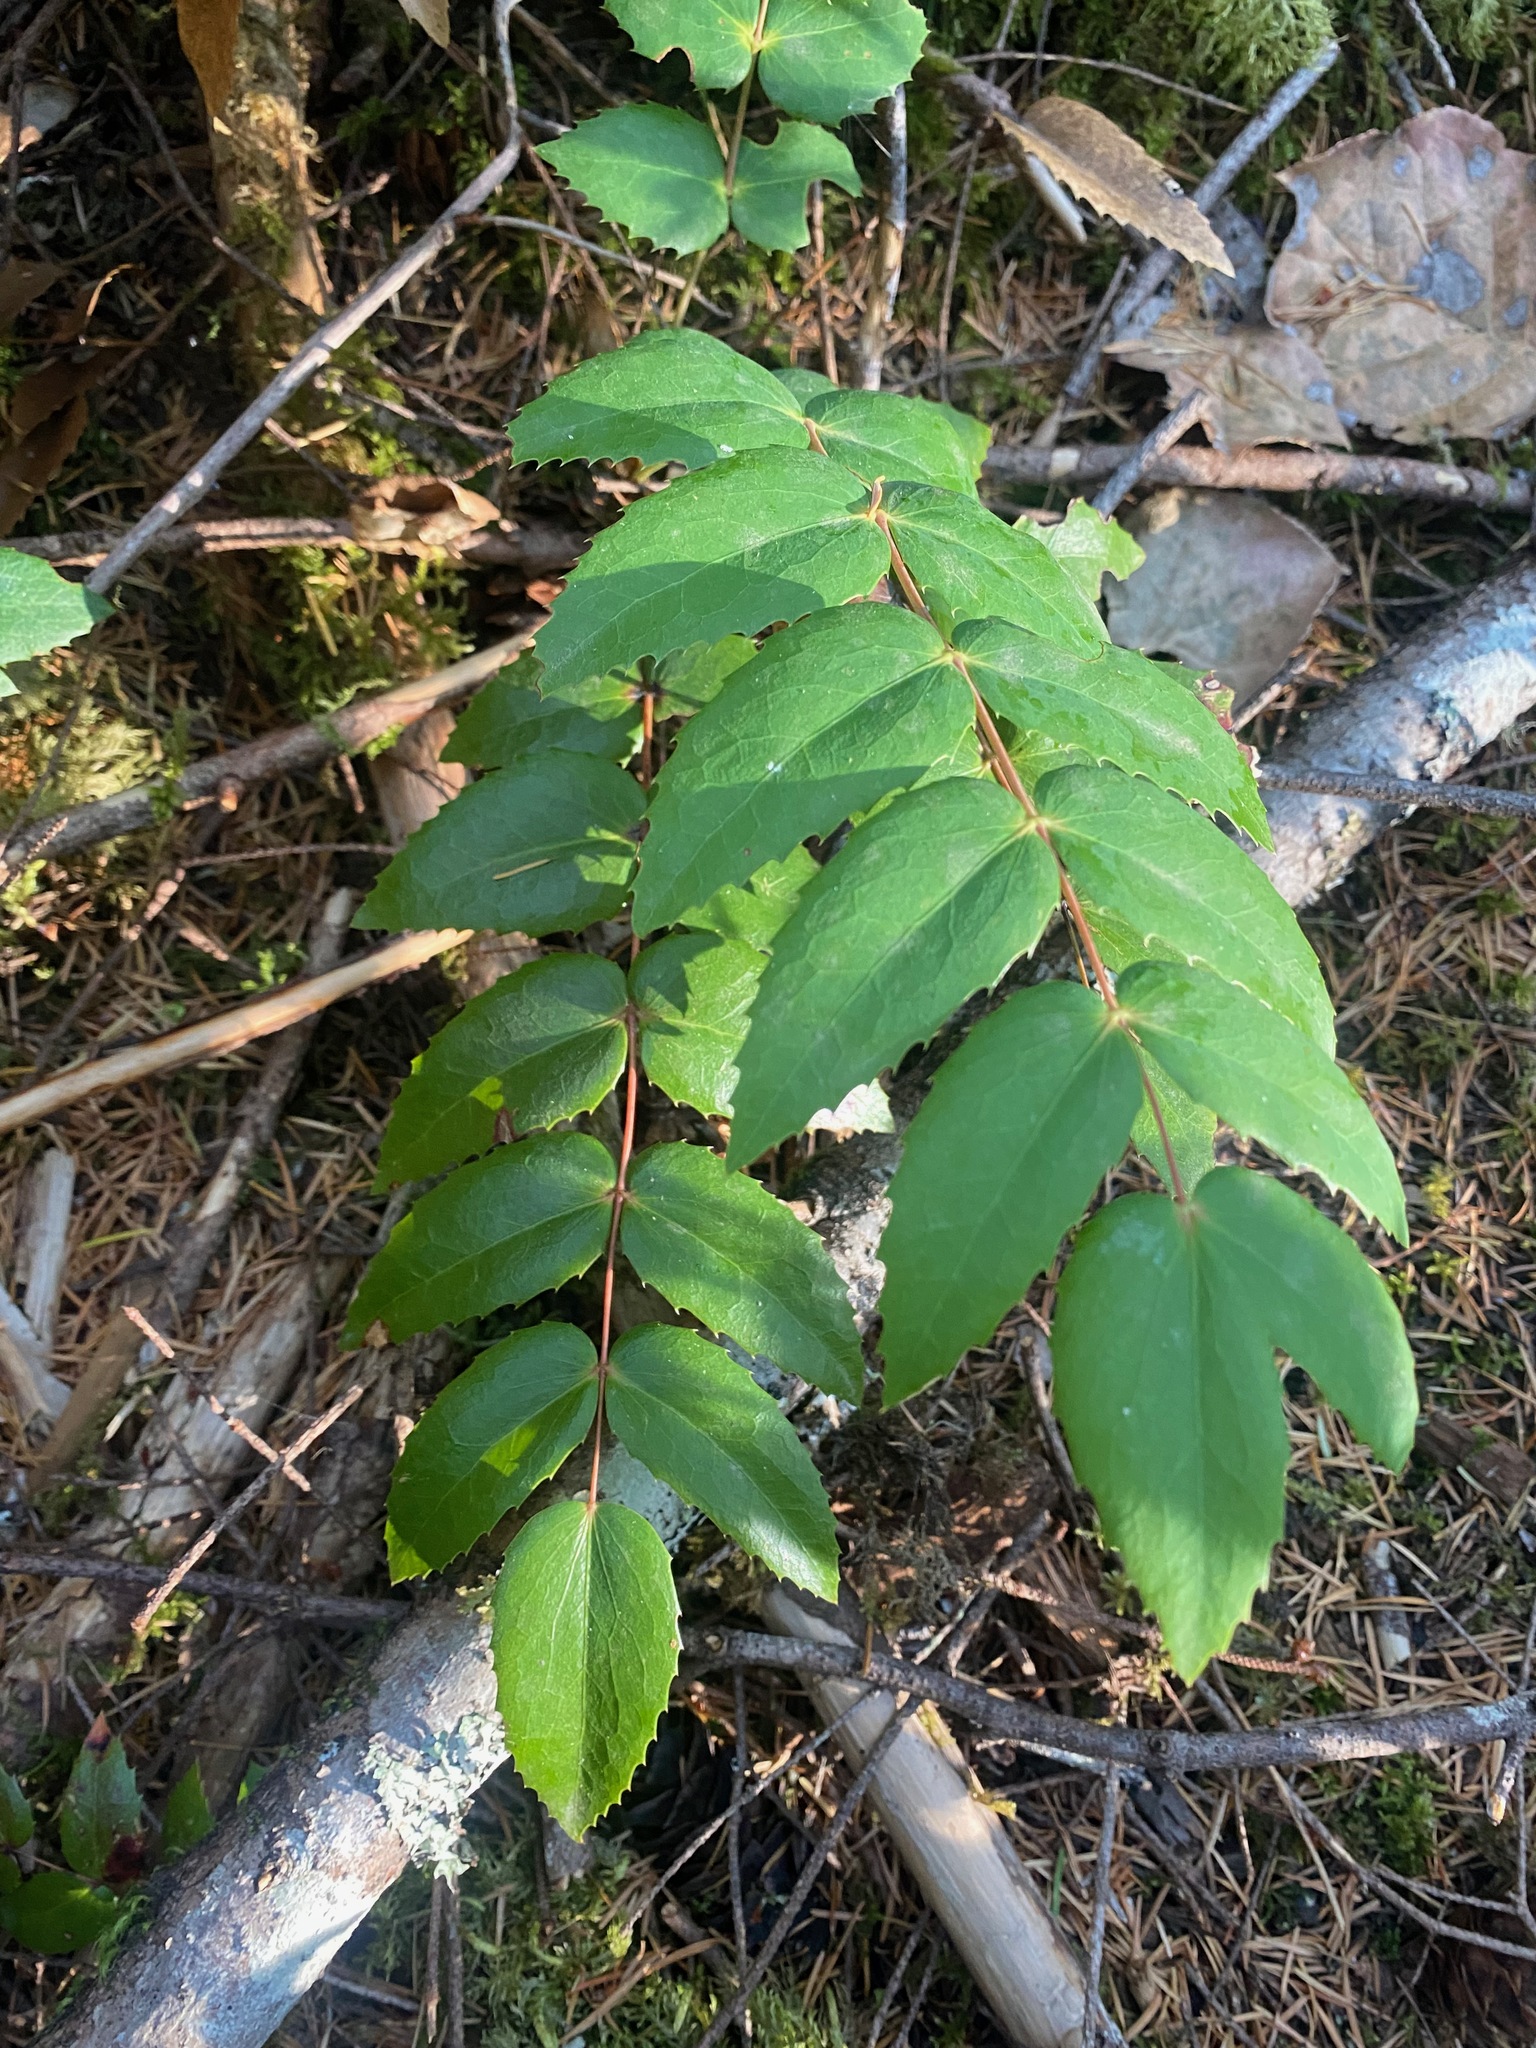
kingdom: Plantae
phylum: Tracheophyta
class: Magnoliopsida
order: Ranunculales
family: Berberidaceae
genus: Mahonia
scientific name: Mahonia nervosa
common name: Cascade oregon-grape
